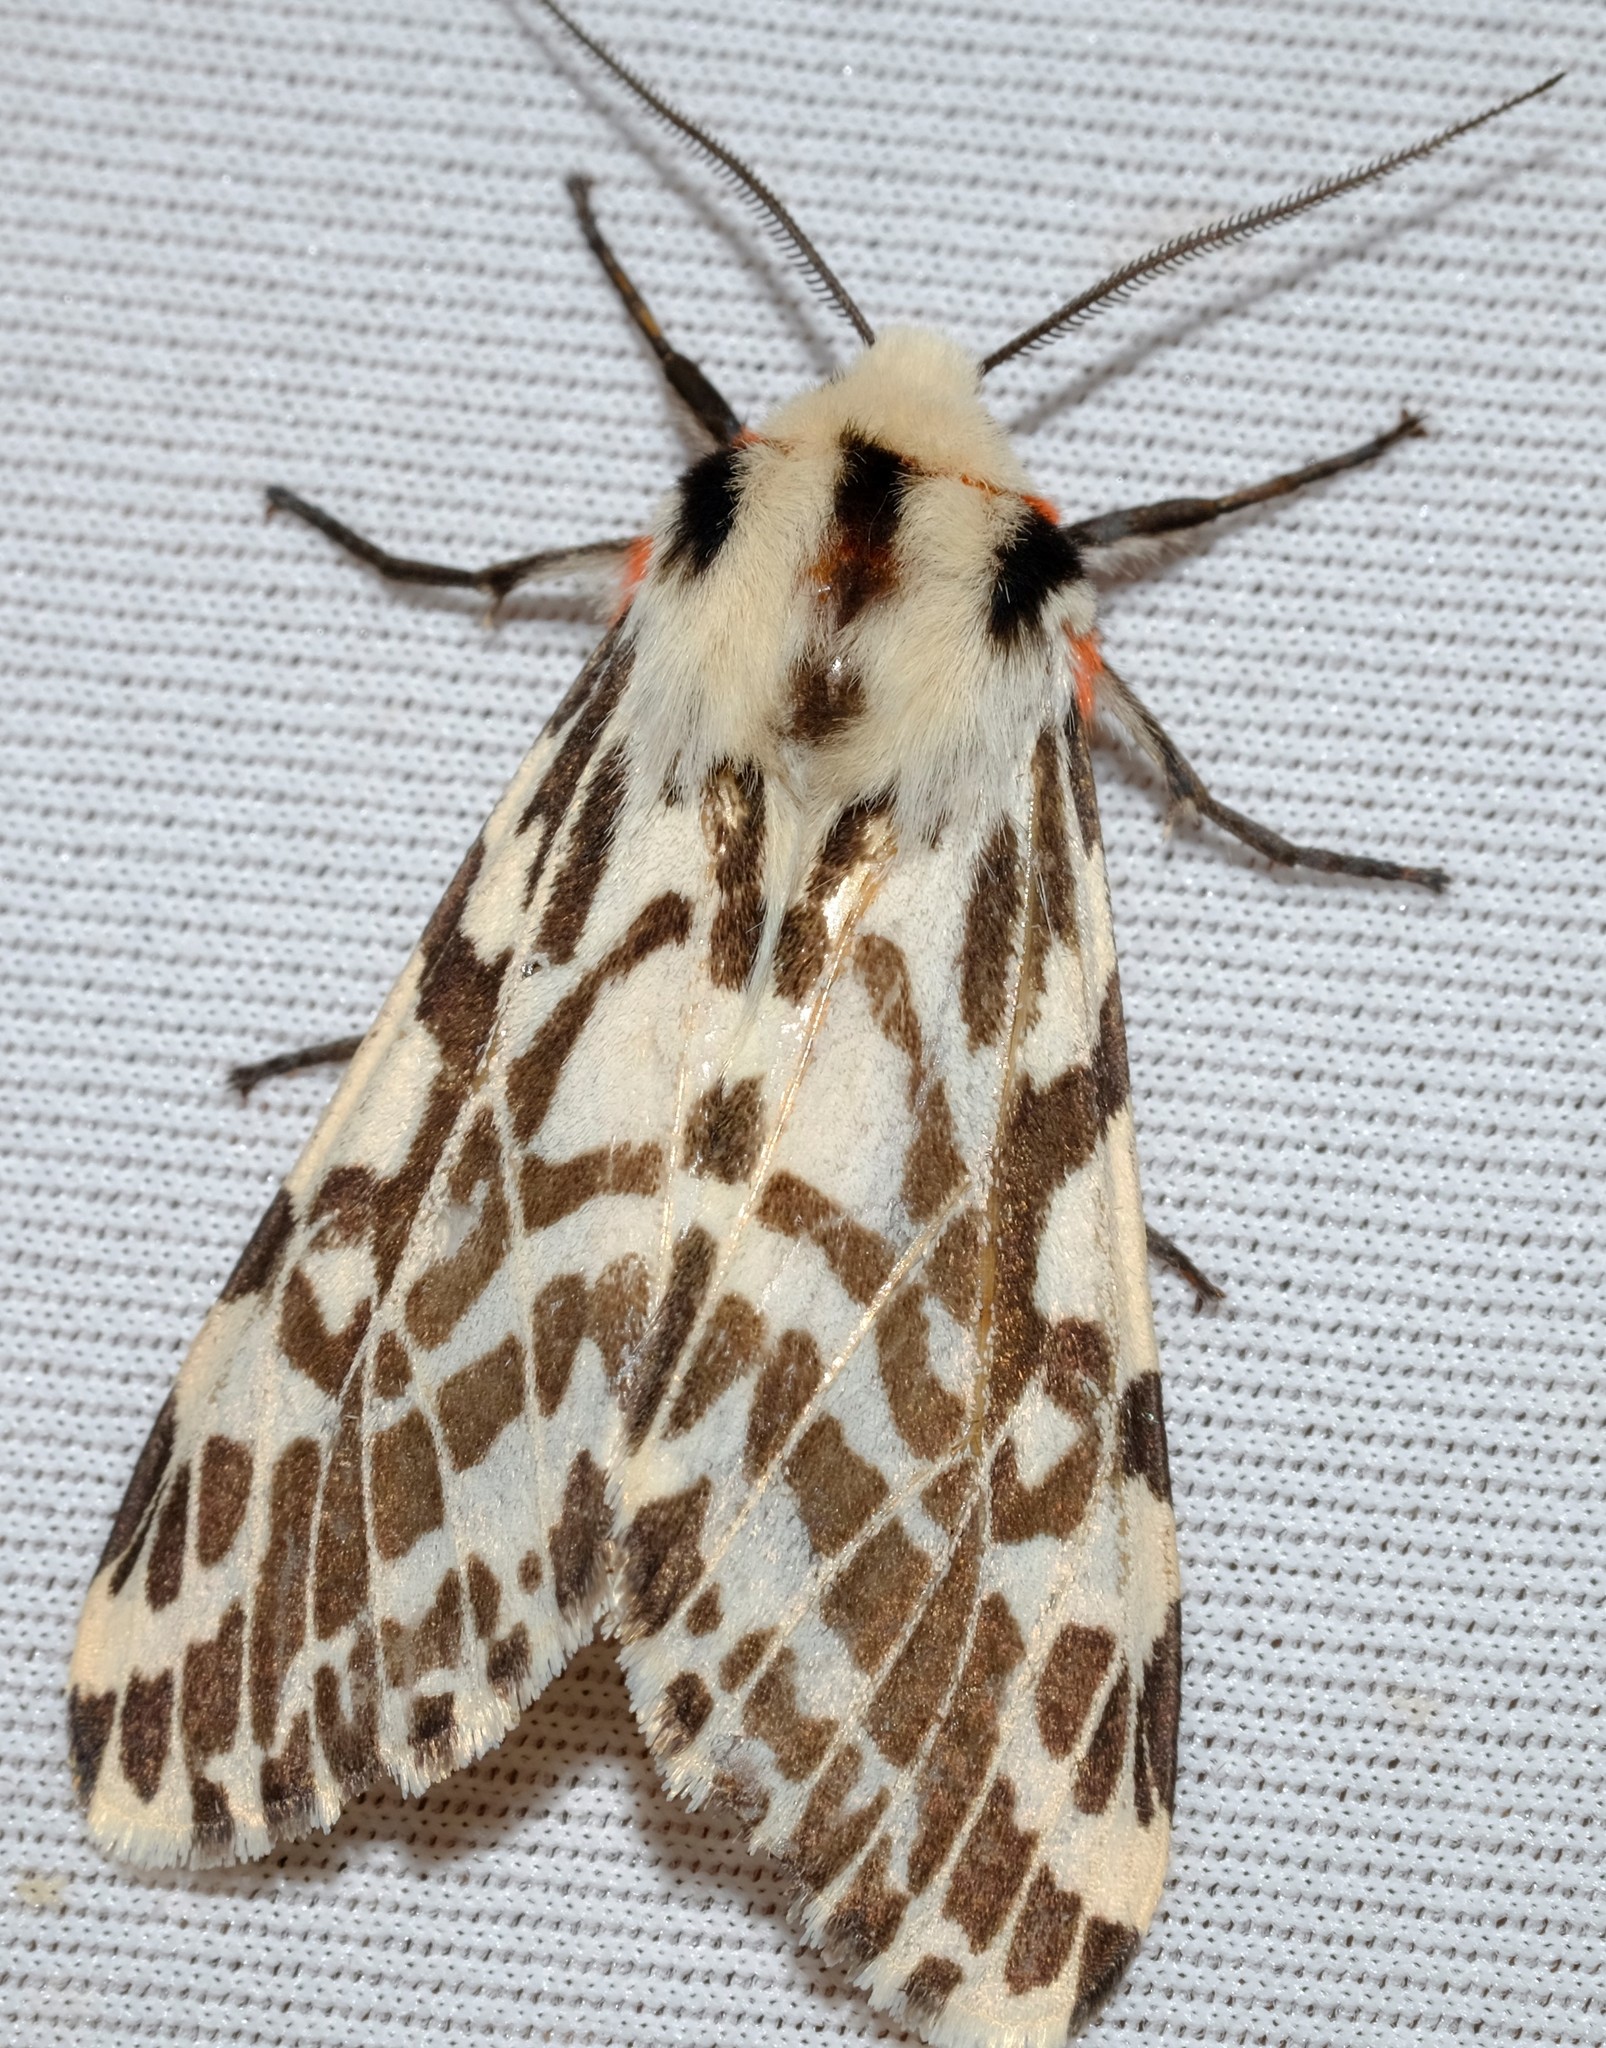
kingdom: Animalia
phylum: Arthropoda
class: Insecta
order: Lepidoptera
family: Erebidae
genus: Ardices
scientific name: Ardices glatignyi
